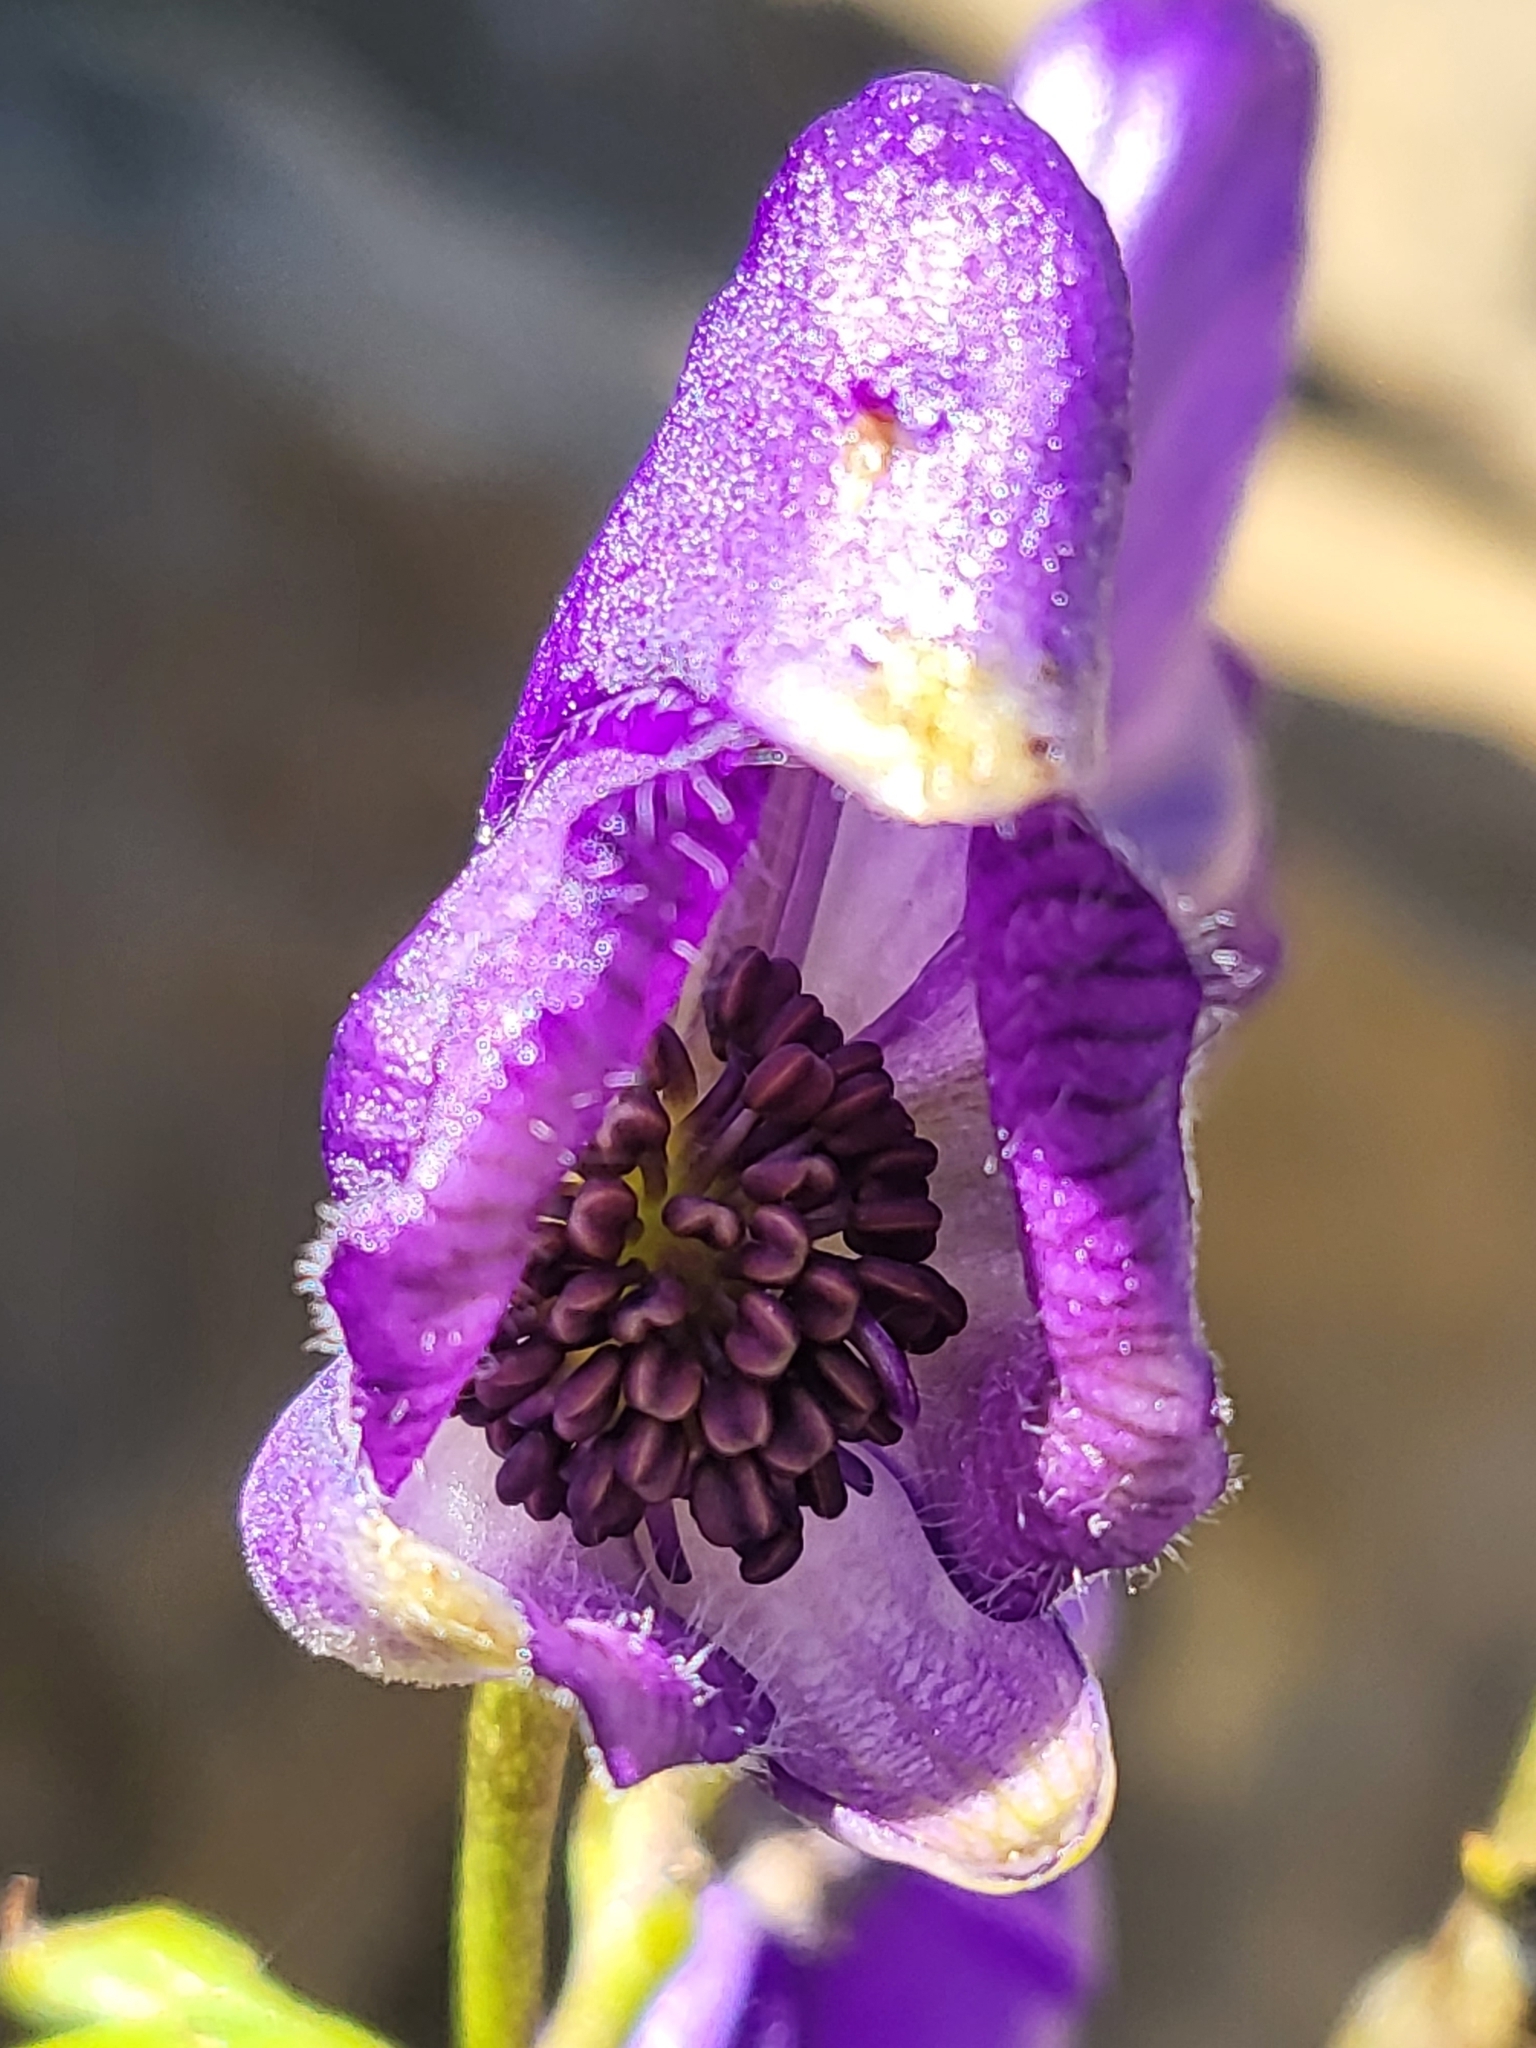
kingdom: Plantae
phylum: Tracheophyta
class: Magnoliopsida
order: Ranunculales
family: Ranunculaceae
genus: Aconitum
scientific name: Aconitum napellus
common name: Garden monkshood
